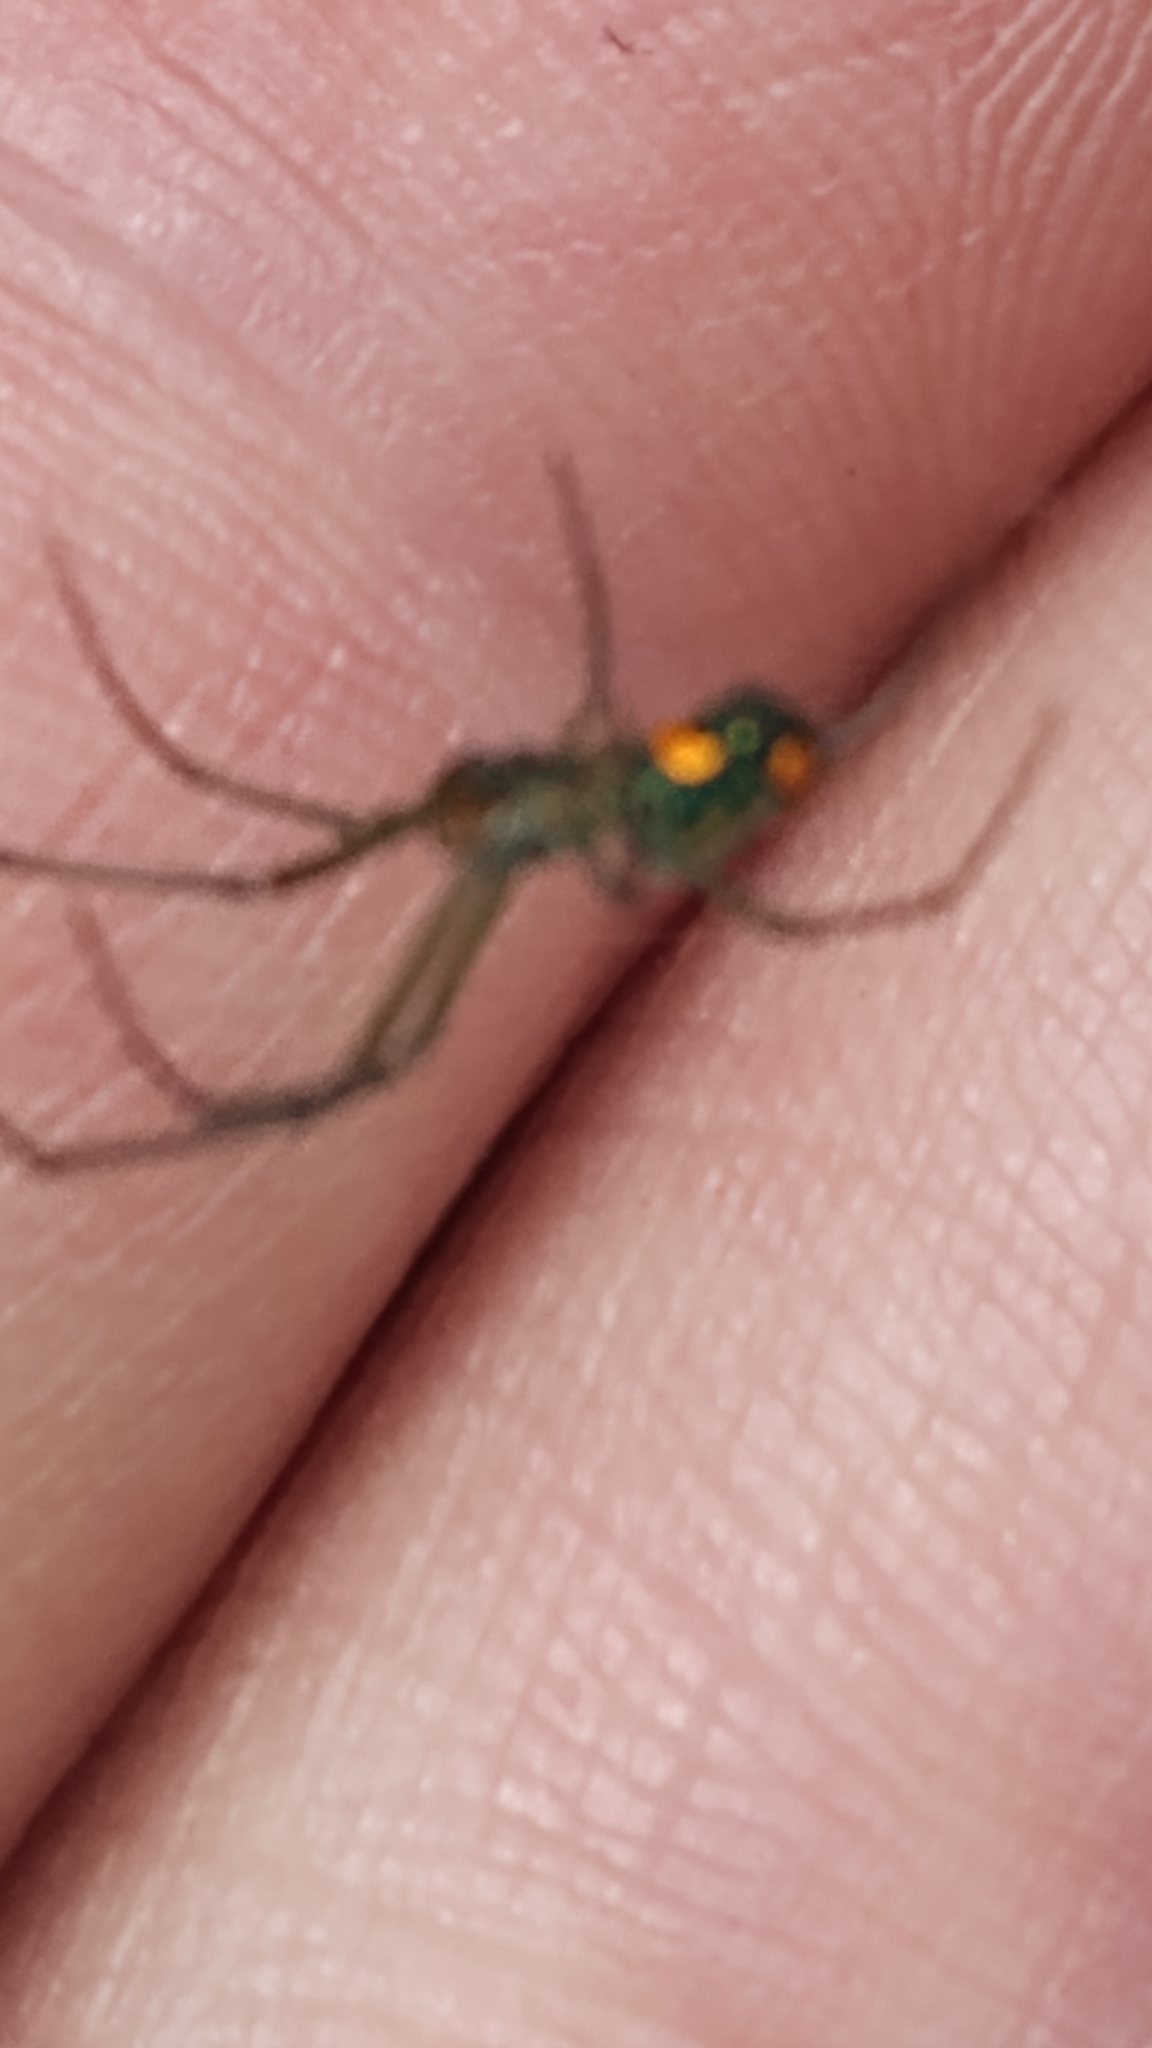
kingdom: Animalia
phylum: Arthropoda
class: Arachnida
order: Araneae
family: Tetragnathidae
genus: Leucauge
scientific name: Leucauge argyrobapta
